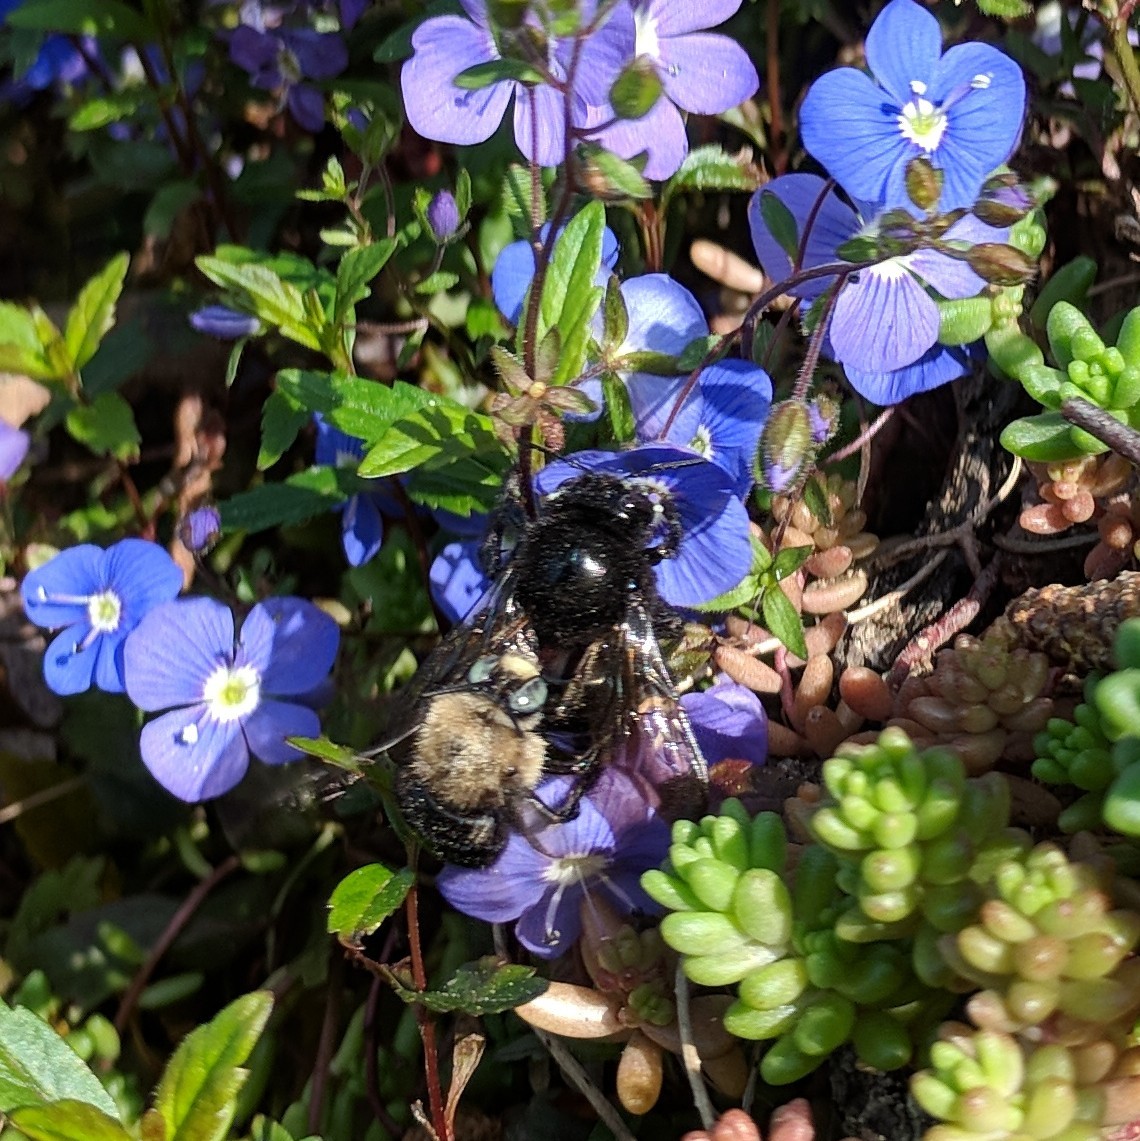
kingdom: Animalia
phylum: Arthropoda
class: Insecta
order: Hymenoptera
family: Apidae
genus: Xylocopa
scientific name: Xylocopa tabaniformis
